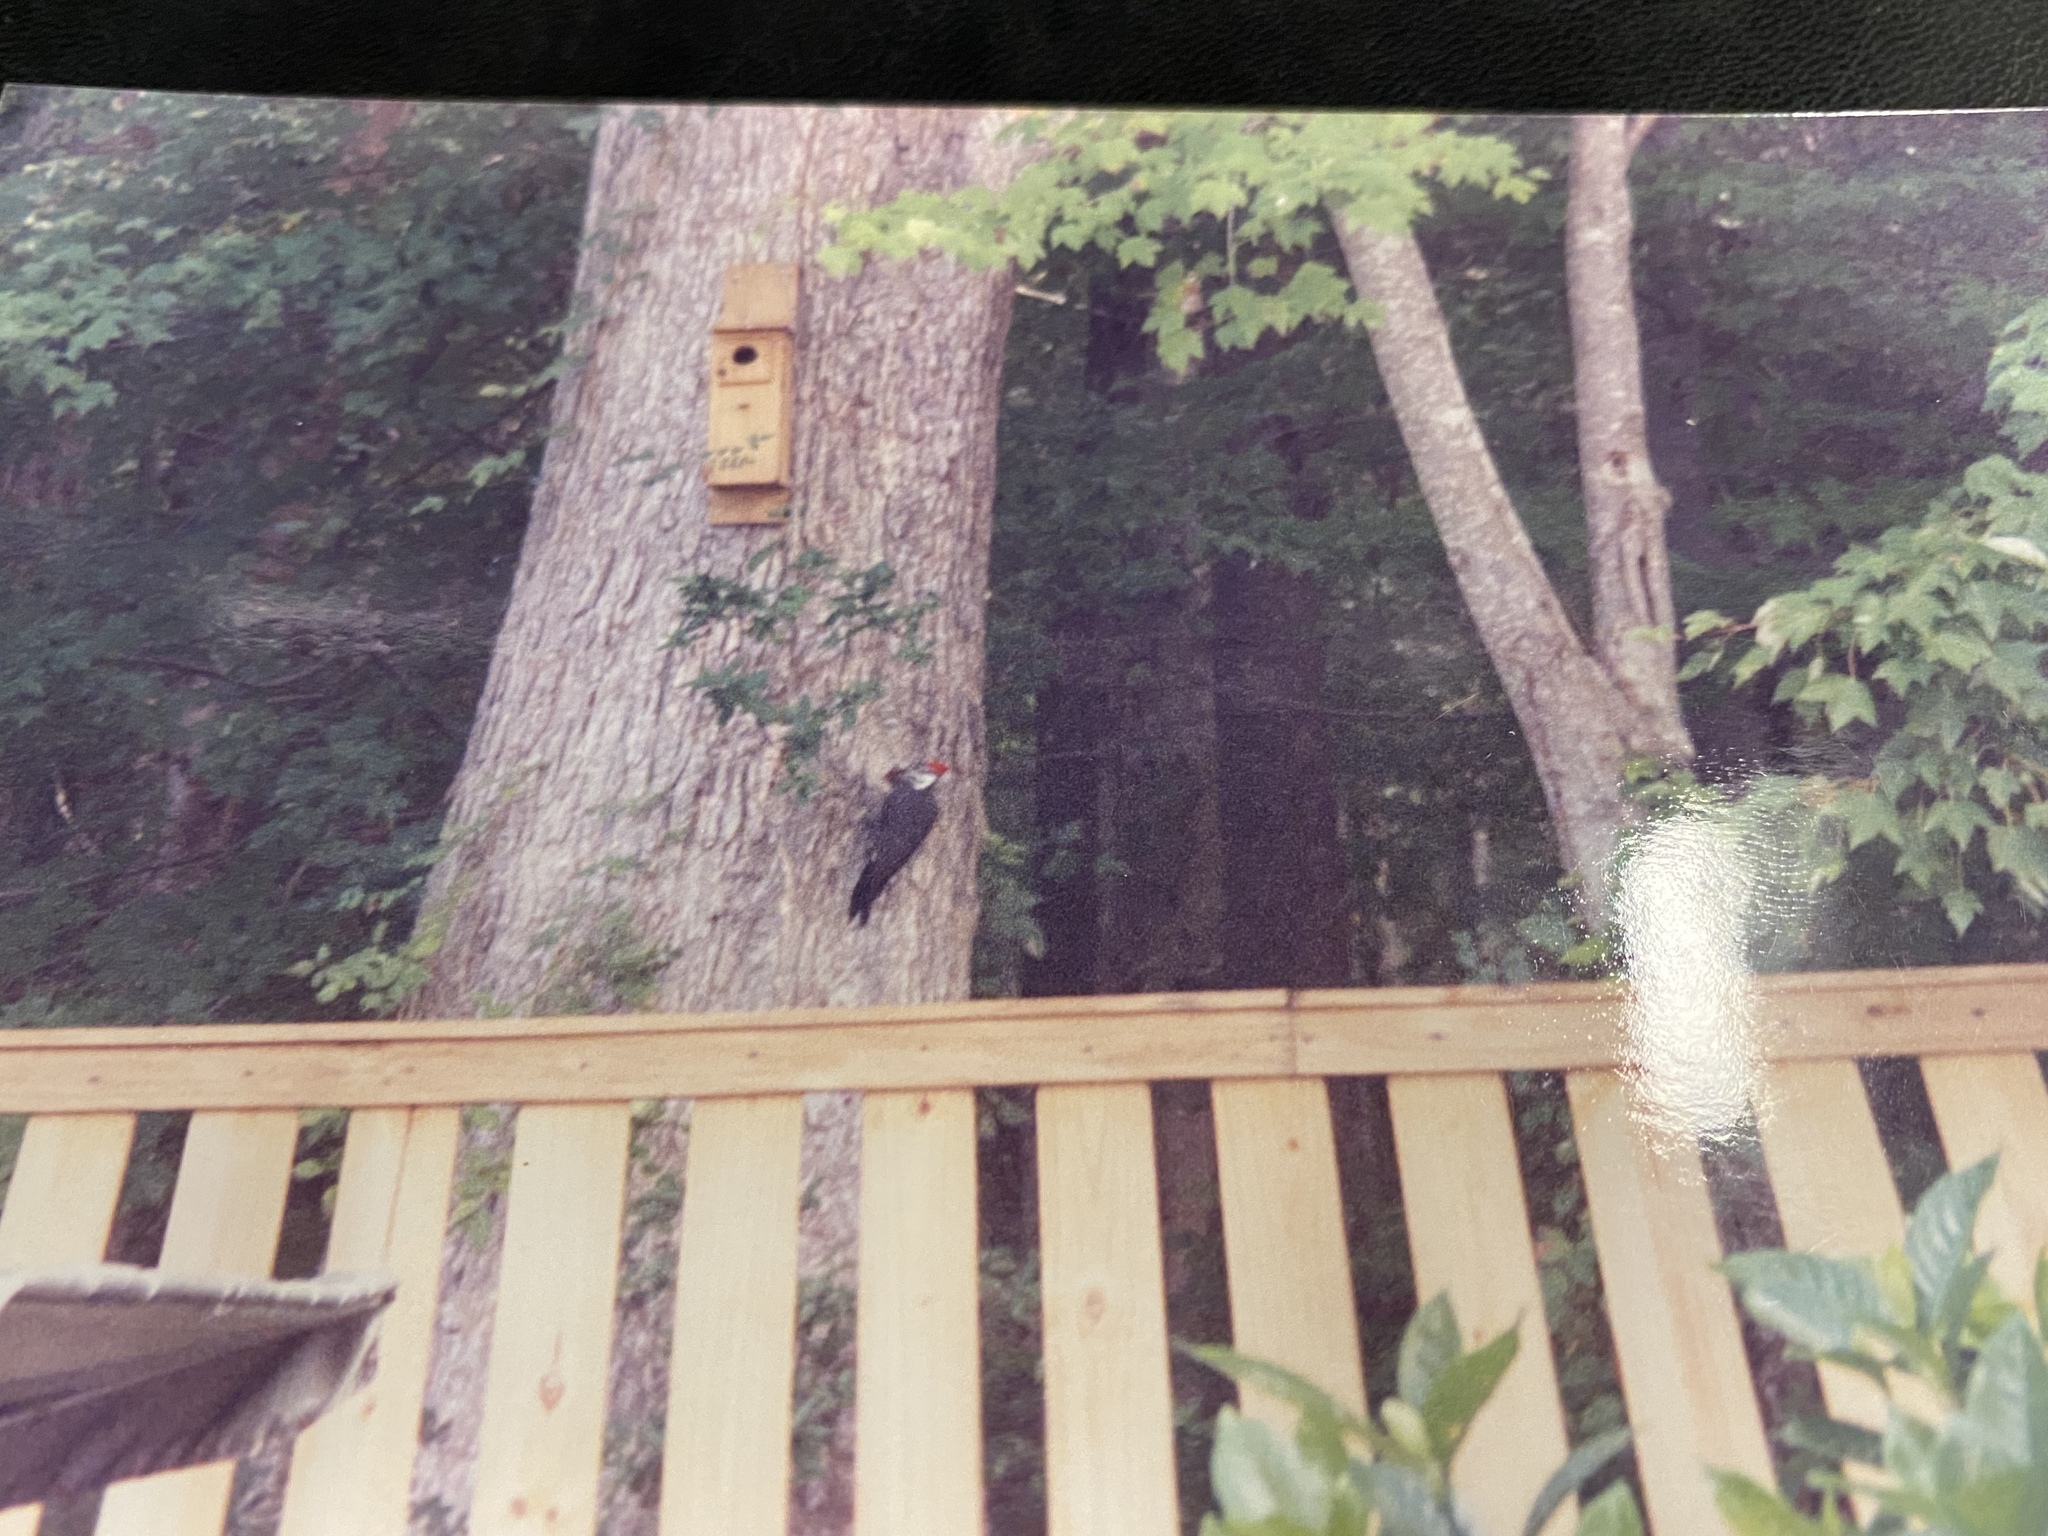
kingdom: Animalia
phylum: Chordata
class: Aves
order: Piciformes
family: Picidae
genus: Dryocopus
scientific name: Dryocopus pileatus
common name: Pileated woodpecker
